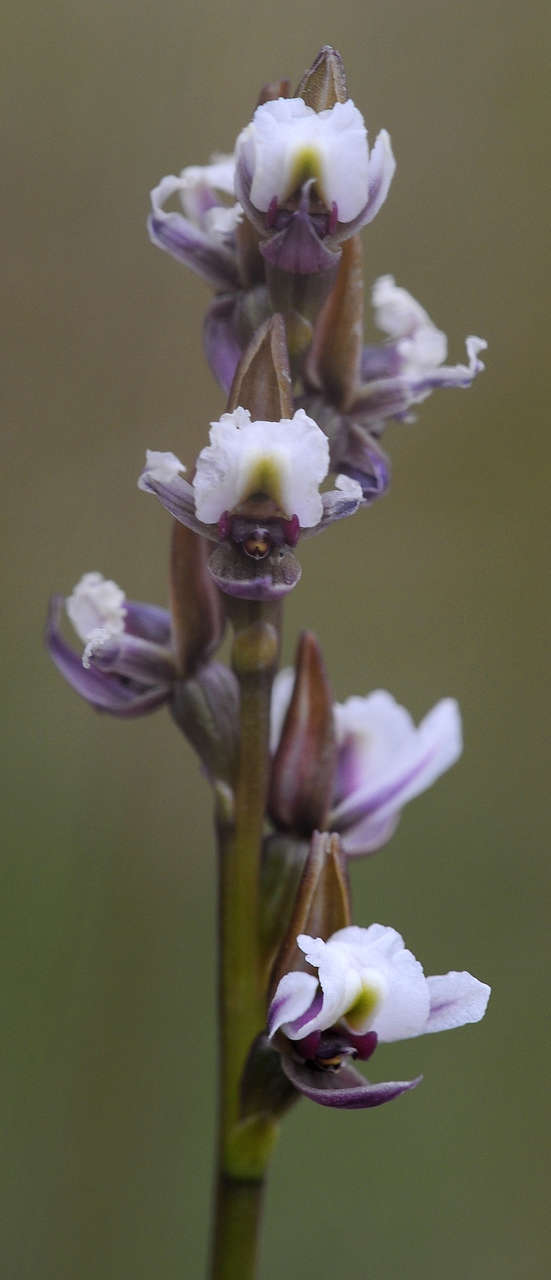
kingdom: Plantae
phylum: Tracheophyta
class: Liliopsida
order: Asparagales
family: Orchidaceae
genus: Prasophyllum
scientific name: Prasophyllum suttonii
